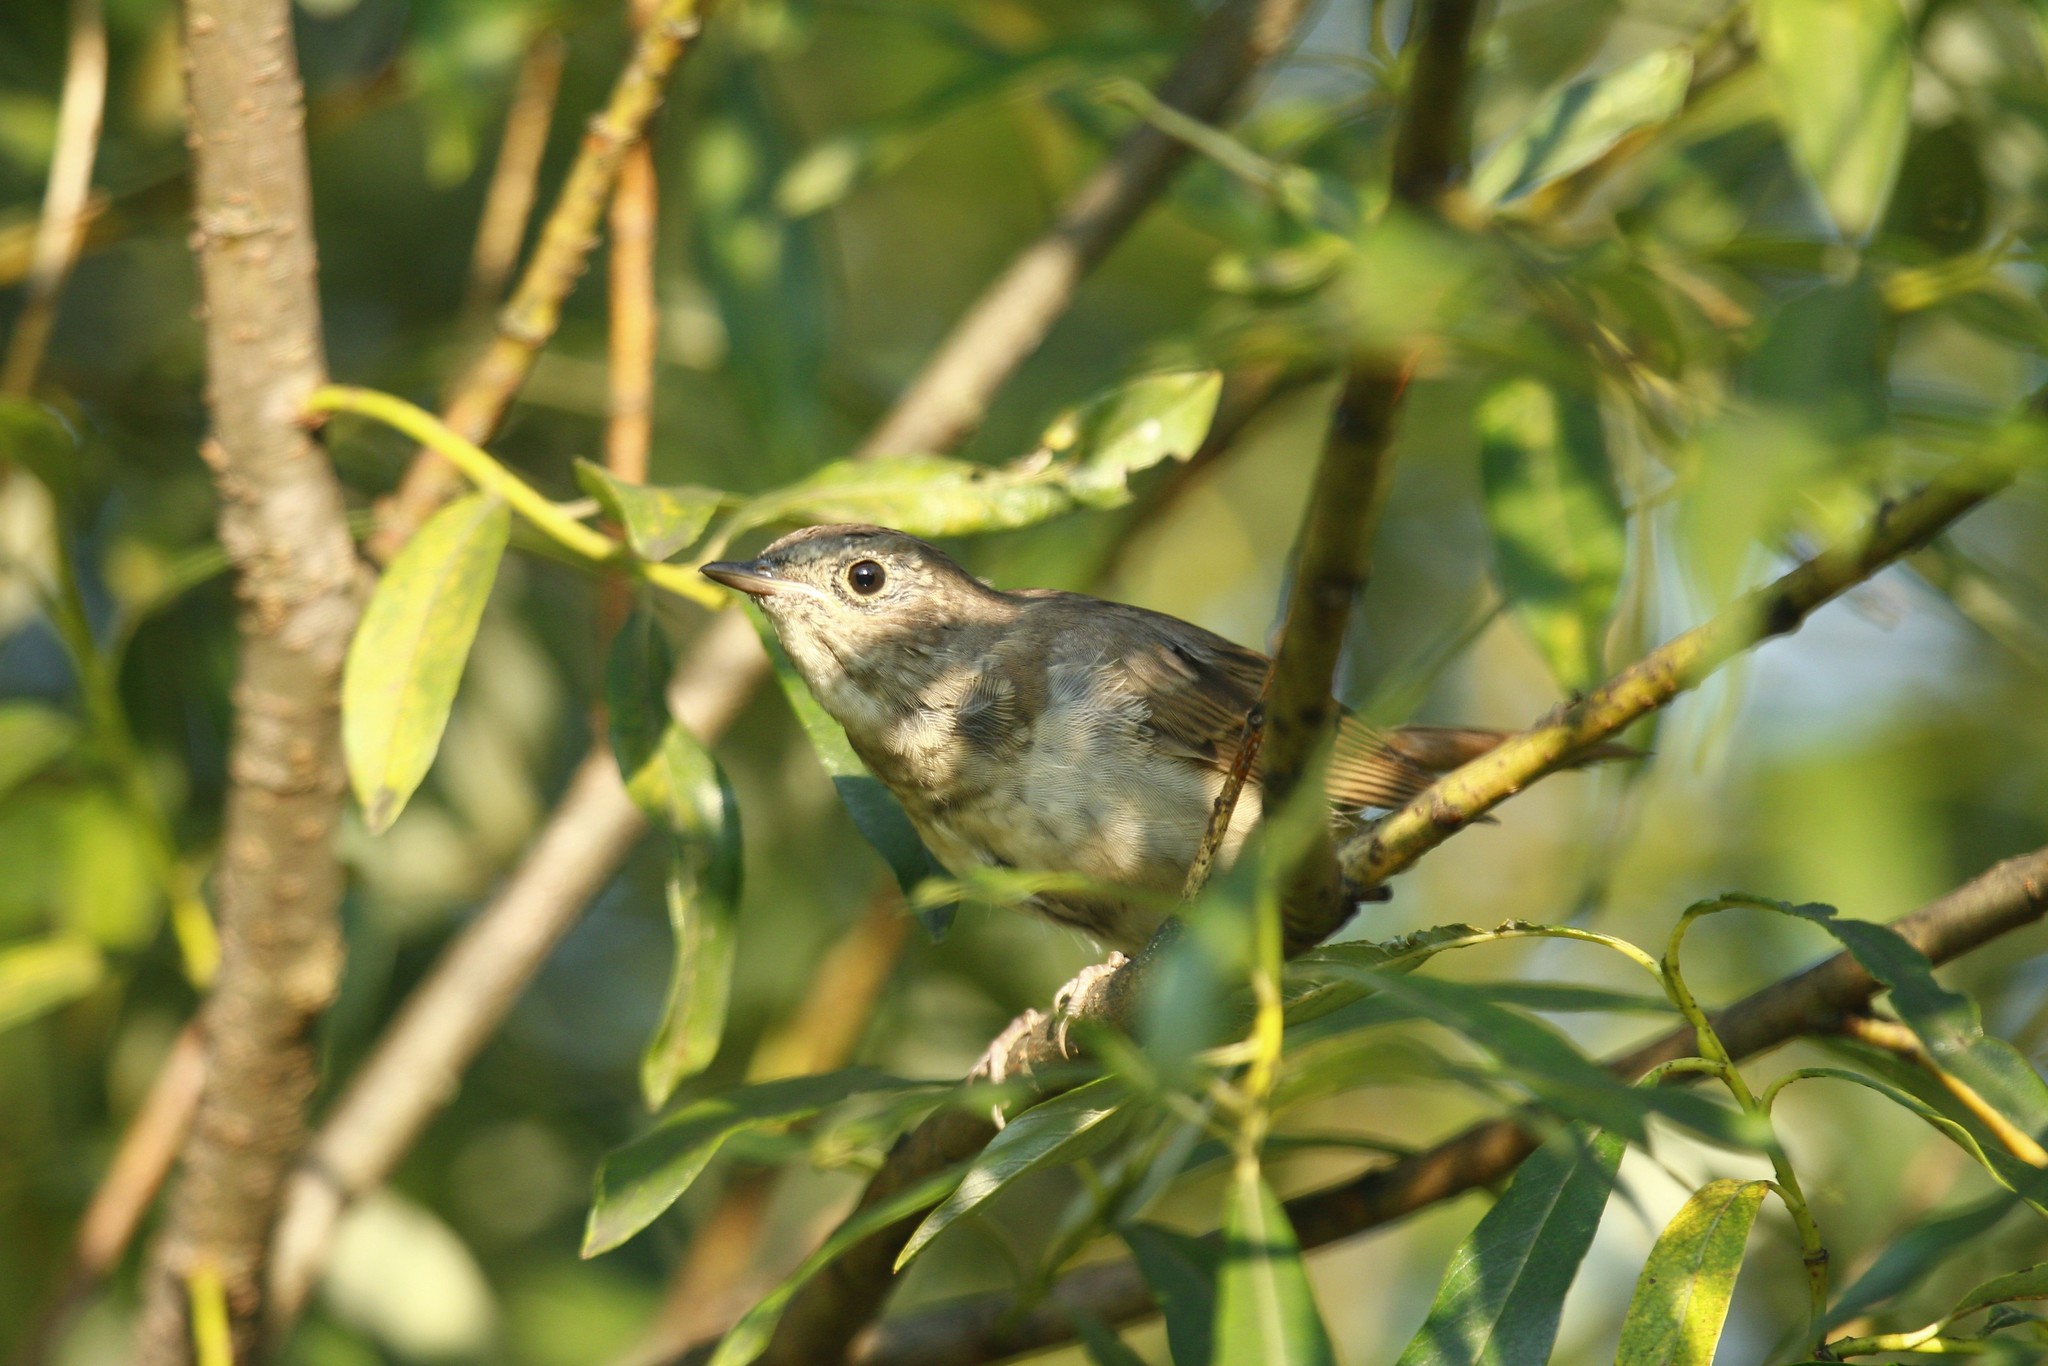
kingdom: Animalia
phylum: Chordata
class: Aves
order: Passeriformes
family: Muscicapidae
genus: Luscinia
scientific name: Luscinia luscinia
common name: Thrush nightingale
